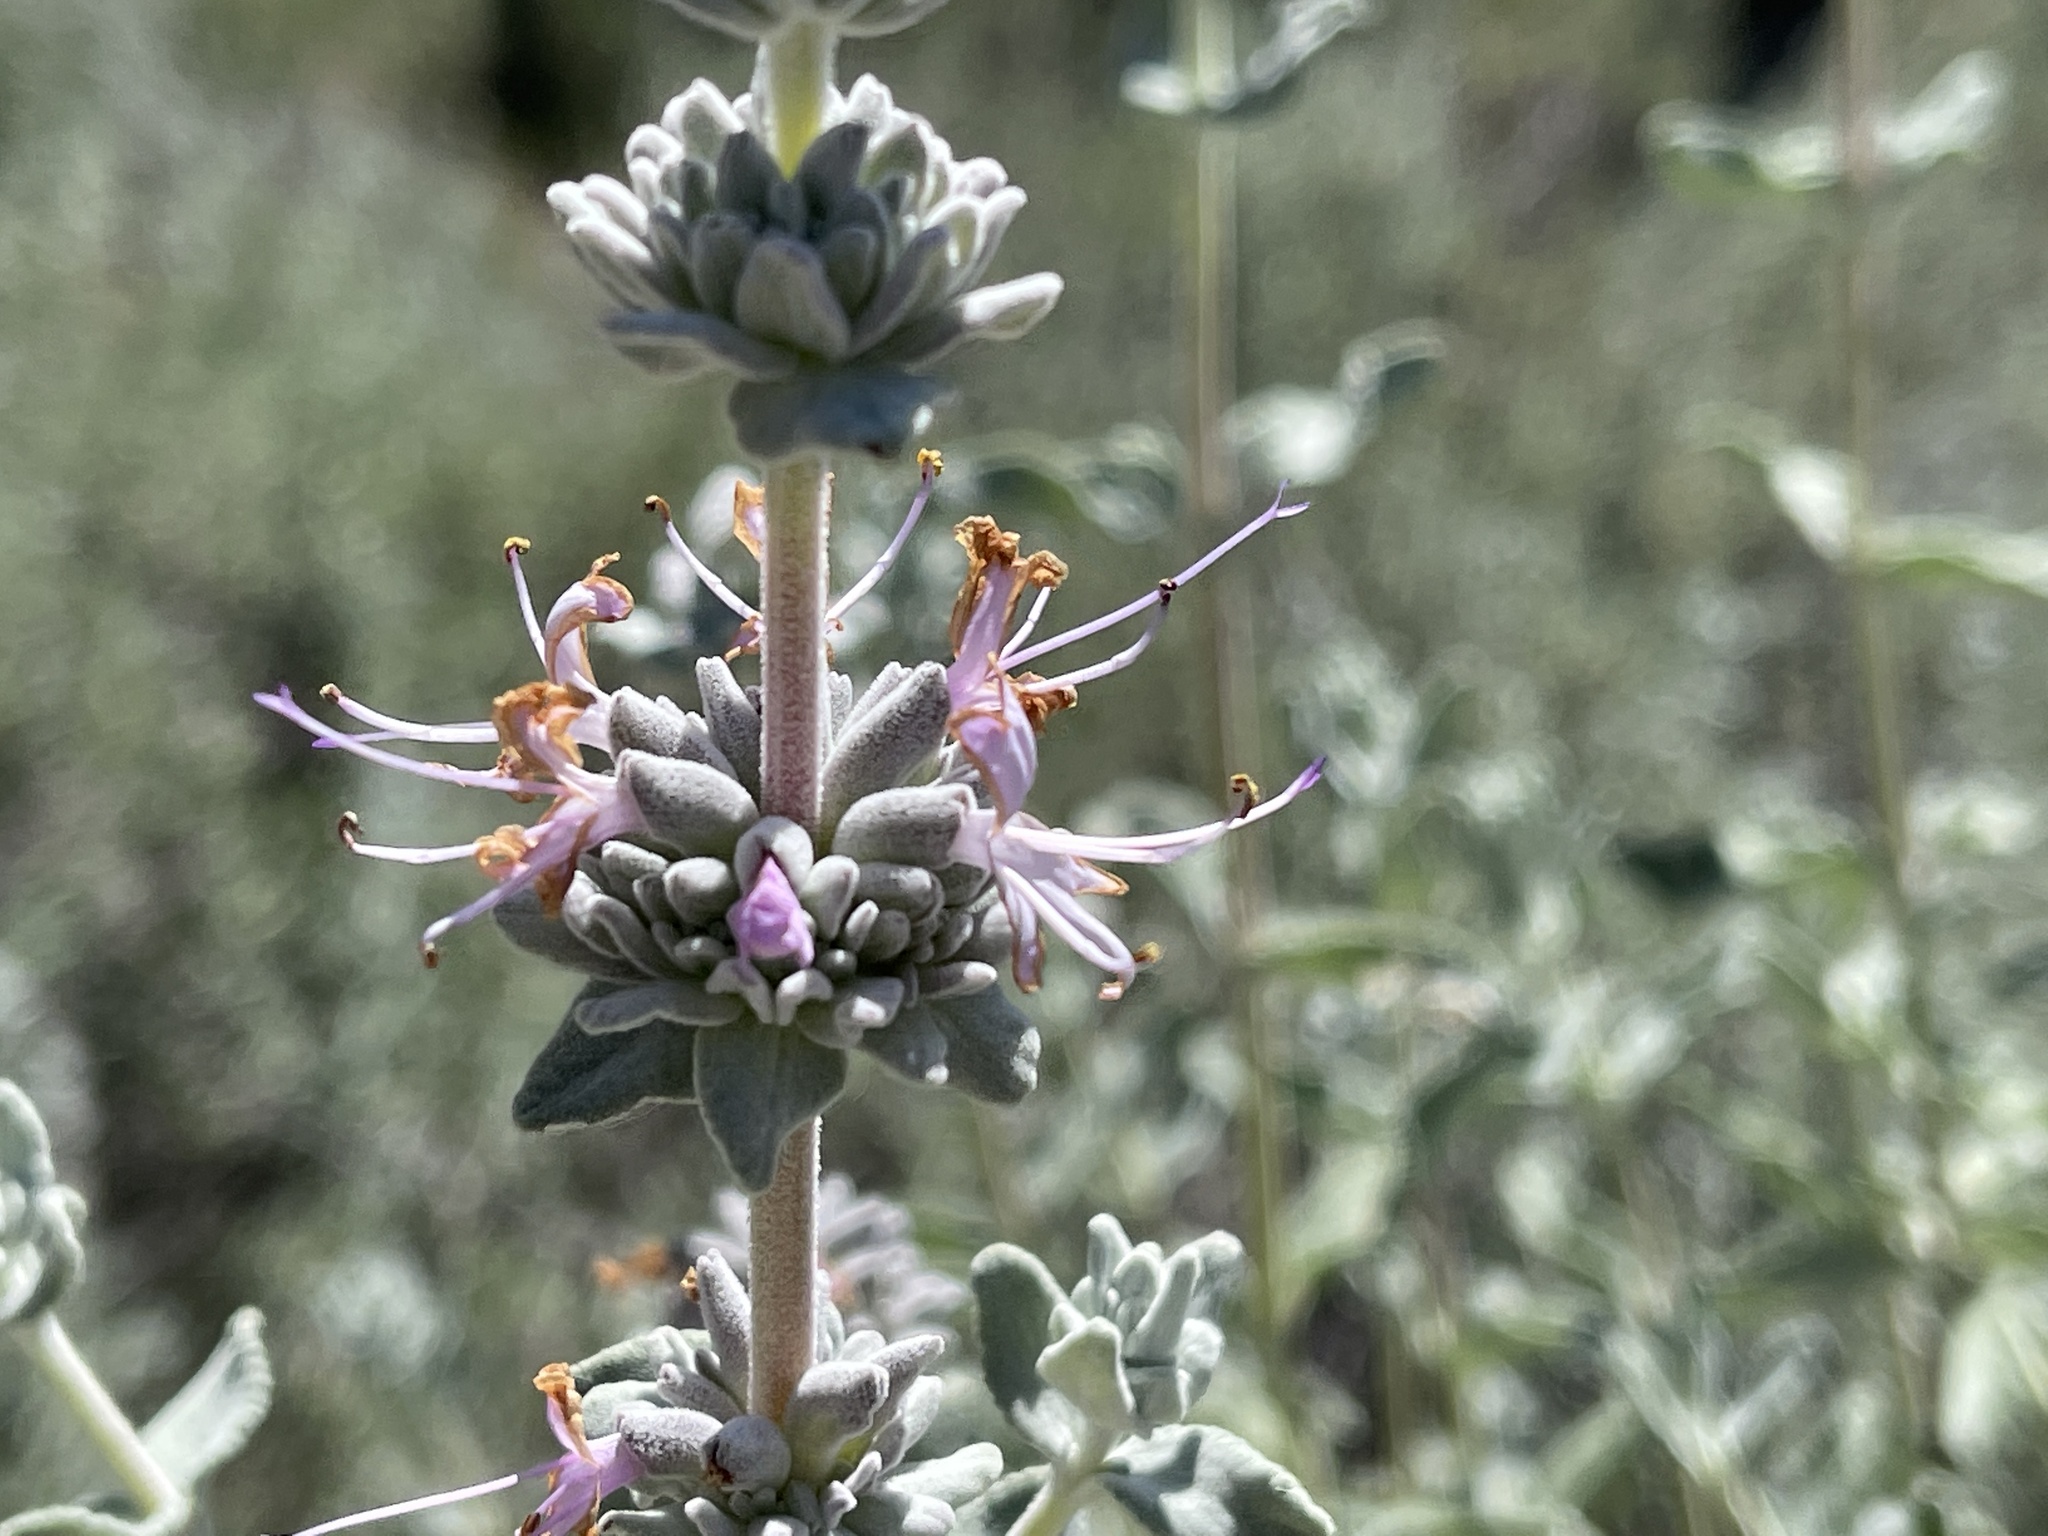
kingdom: Plantae
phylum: Tracheophyta
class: Magnoliopsida
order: Lamiales
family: Lamiaceae
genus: Salvia
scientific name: Salvia leucophylla
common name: Purple sage
